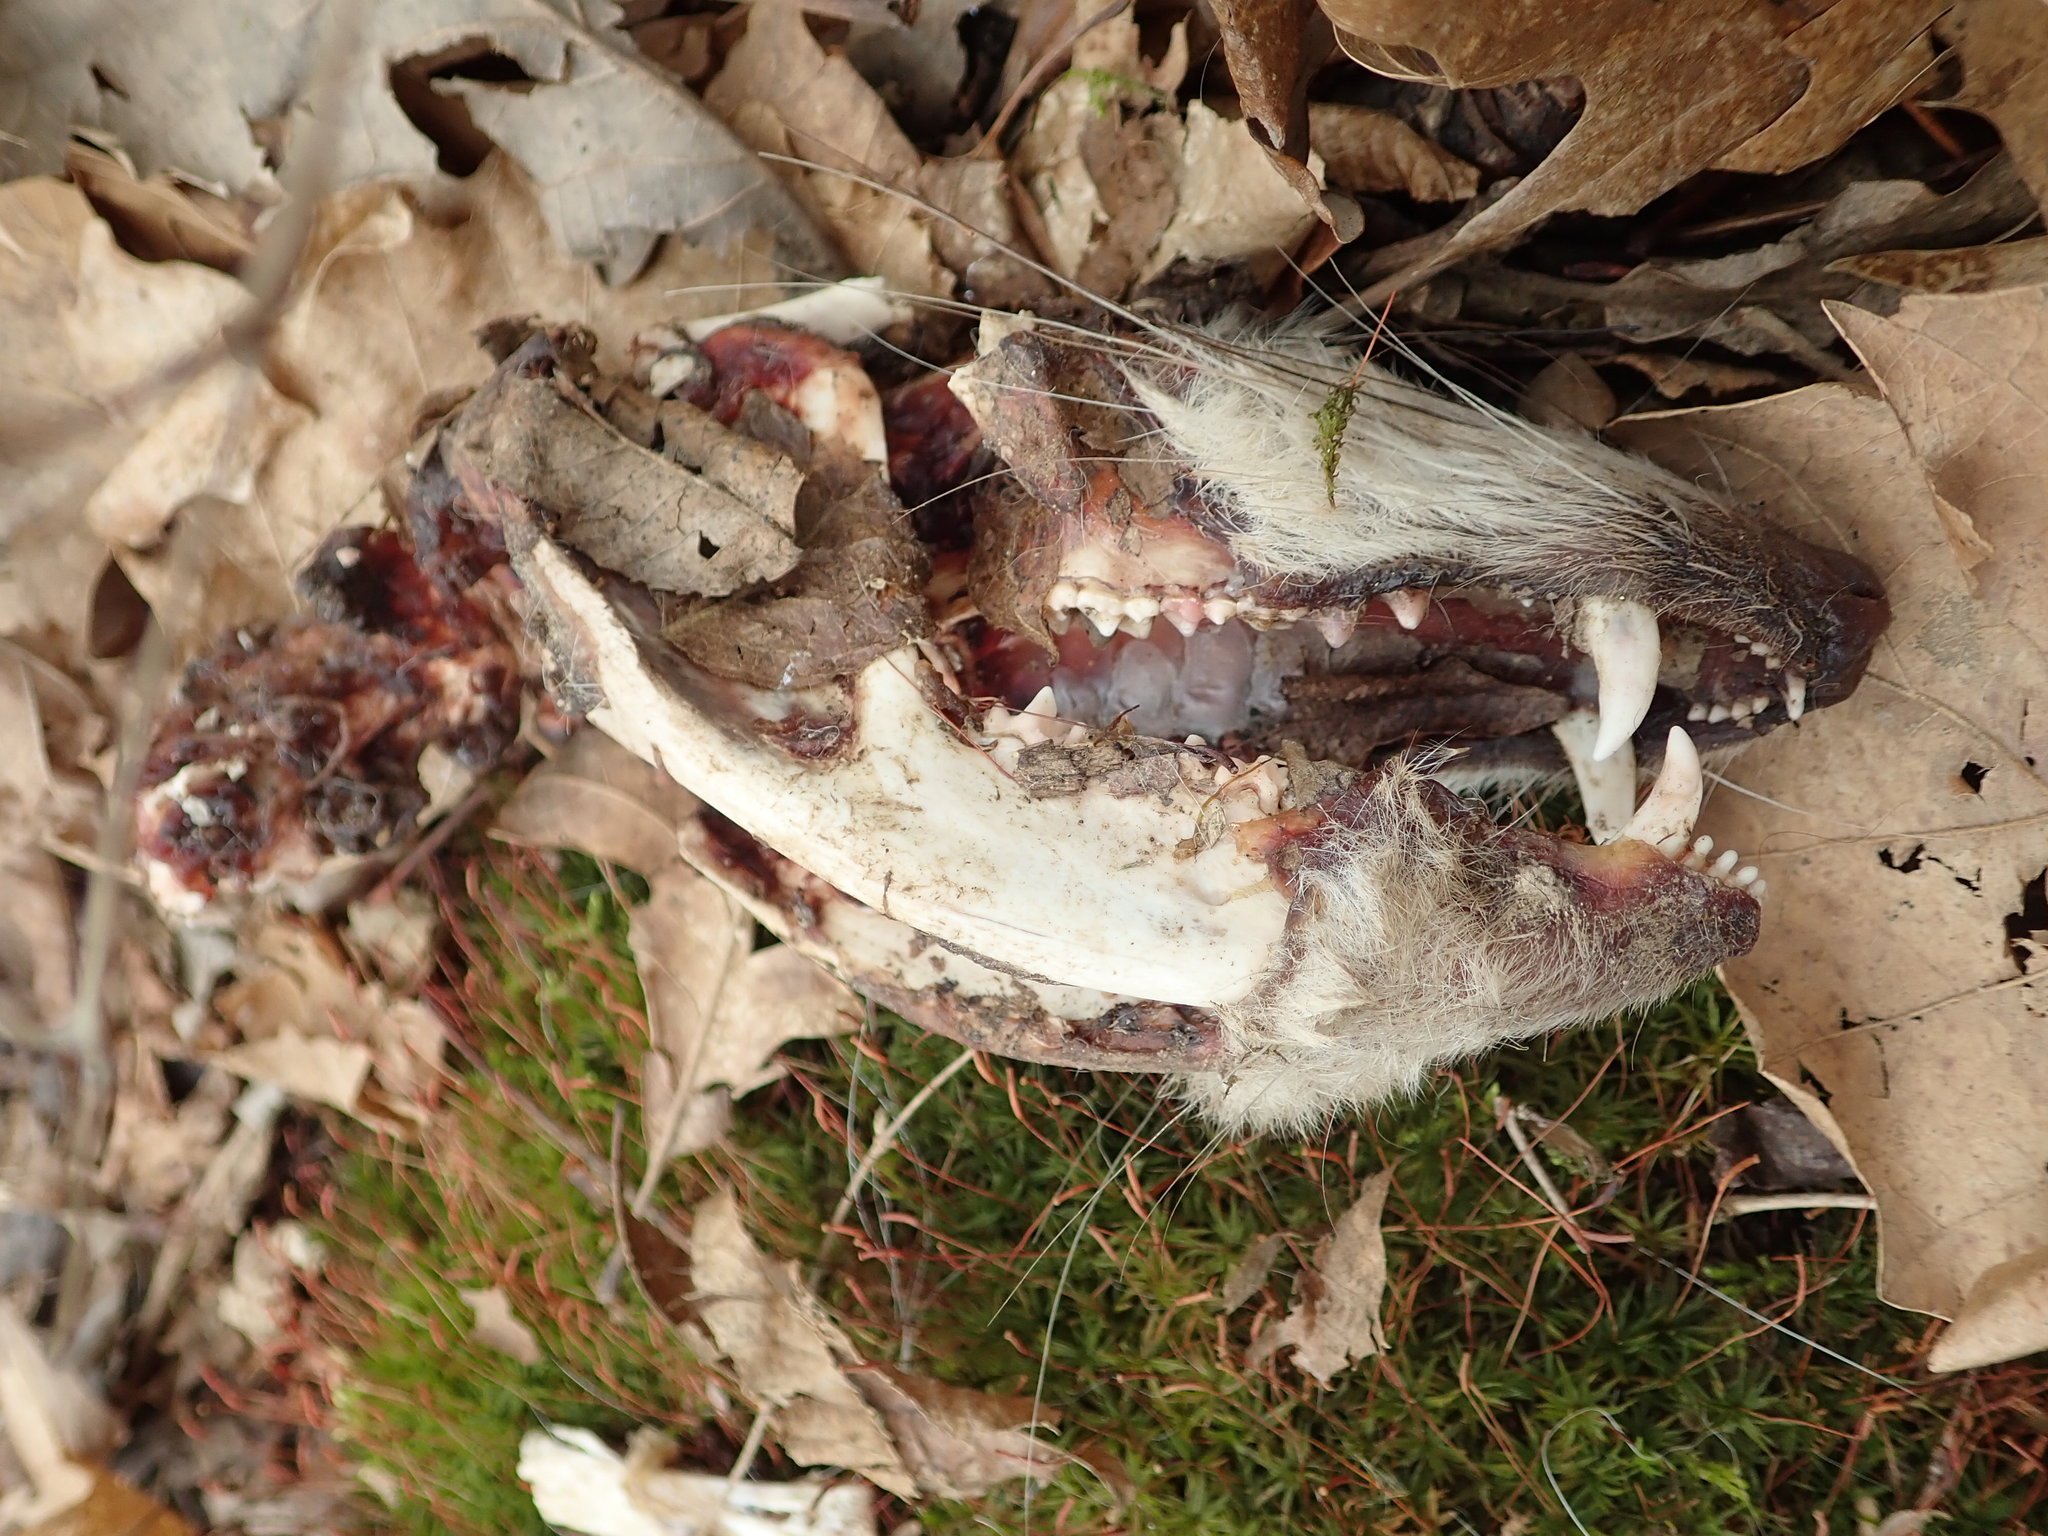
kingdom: Animalia
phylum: Chordata
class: Mammalia
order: Didelphimorphia
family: Didelphidae
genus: Didelphis
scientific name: Didelphis virginiana
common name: Virginia opossum
